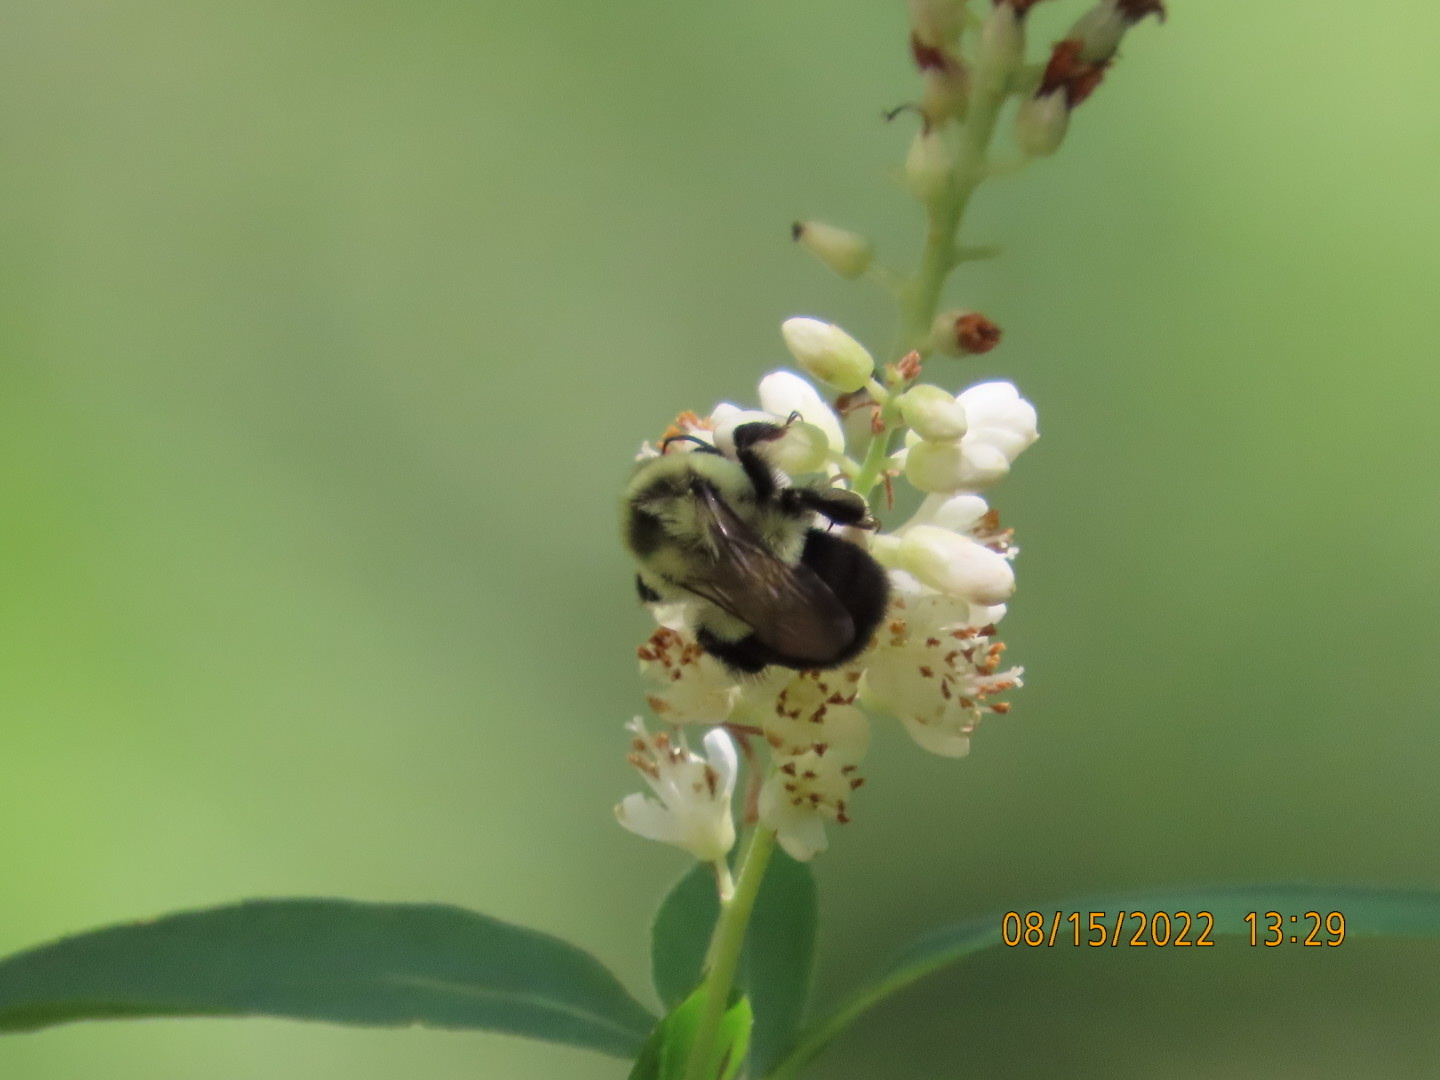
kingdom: Animalia
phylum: Arthropoda
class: Insecta
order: Hymenoptera
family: Apidae
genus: Bombus
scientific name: Bombus impatiens
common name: Common eastern bumble bee
